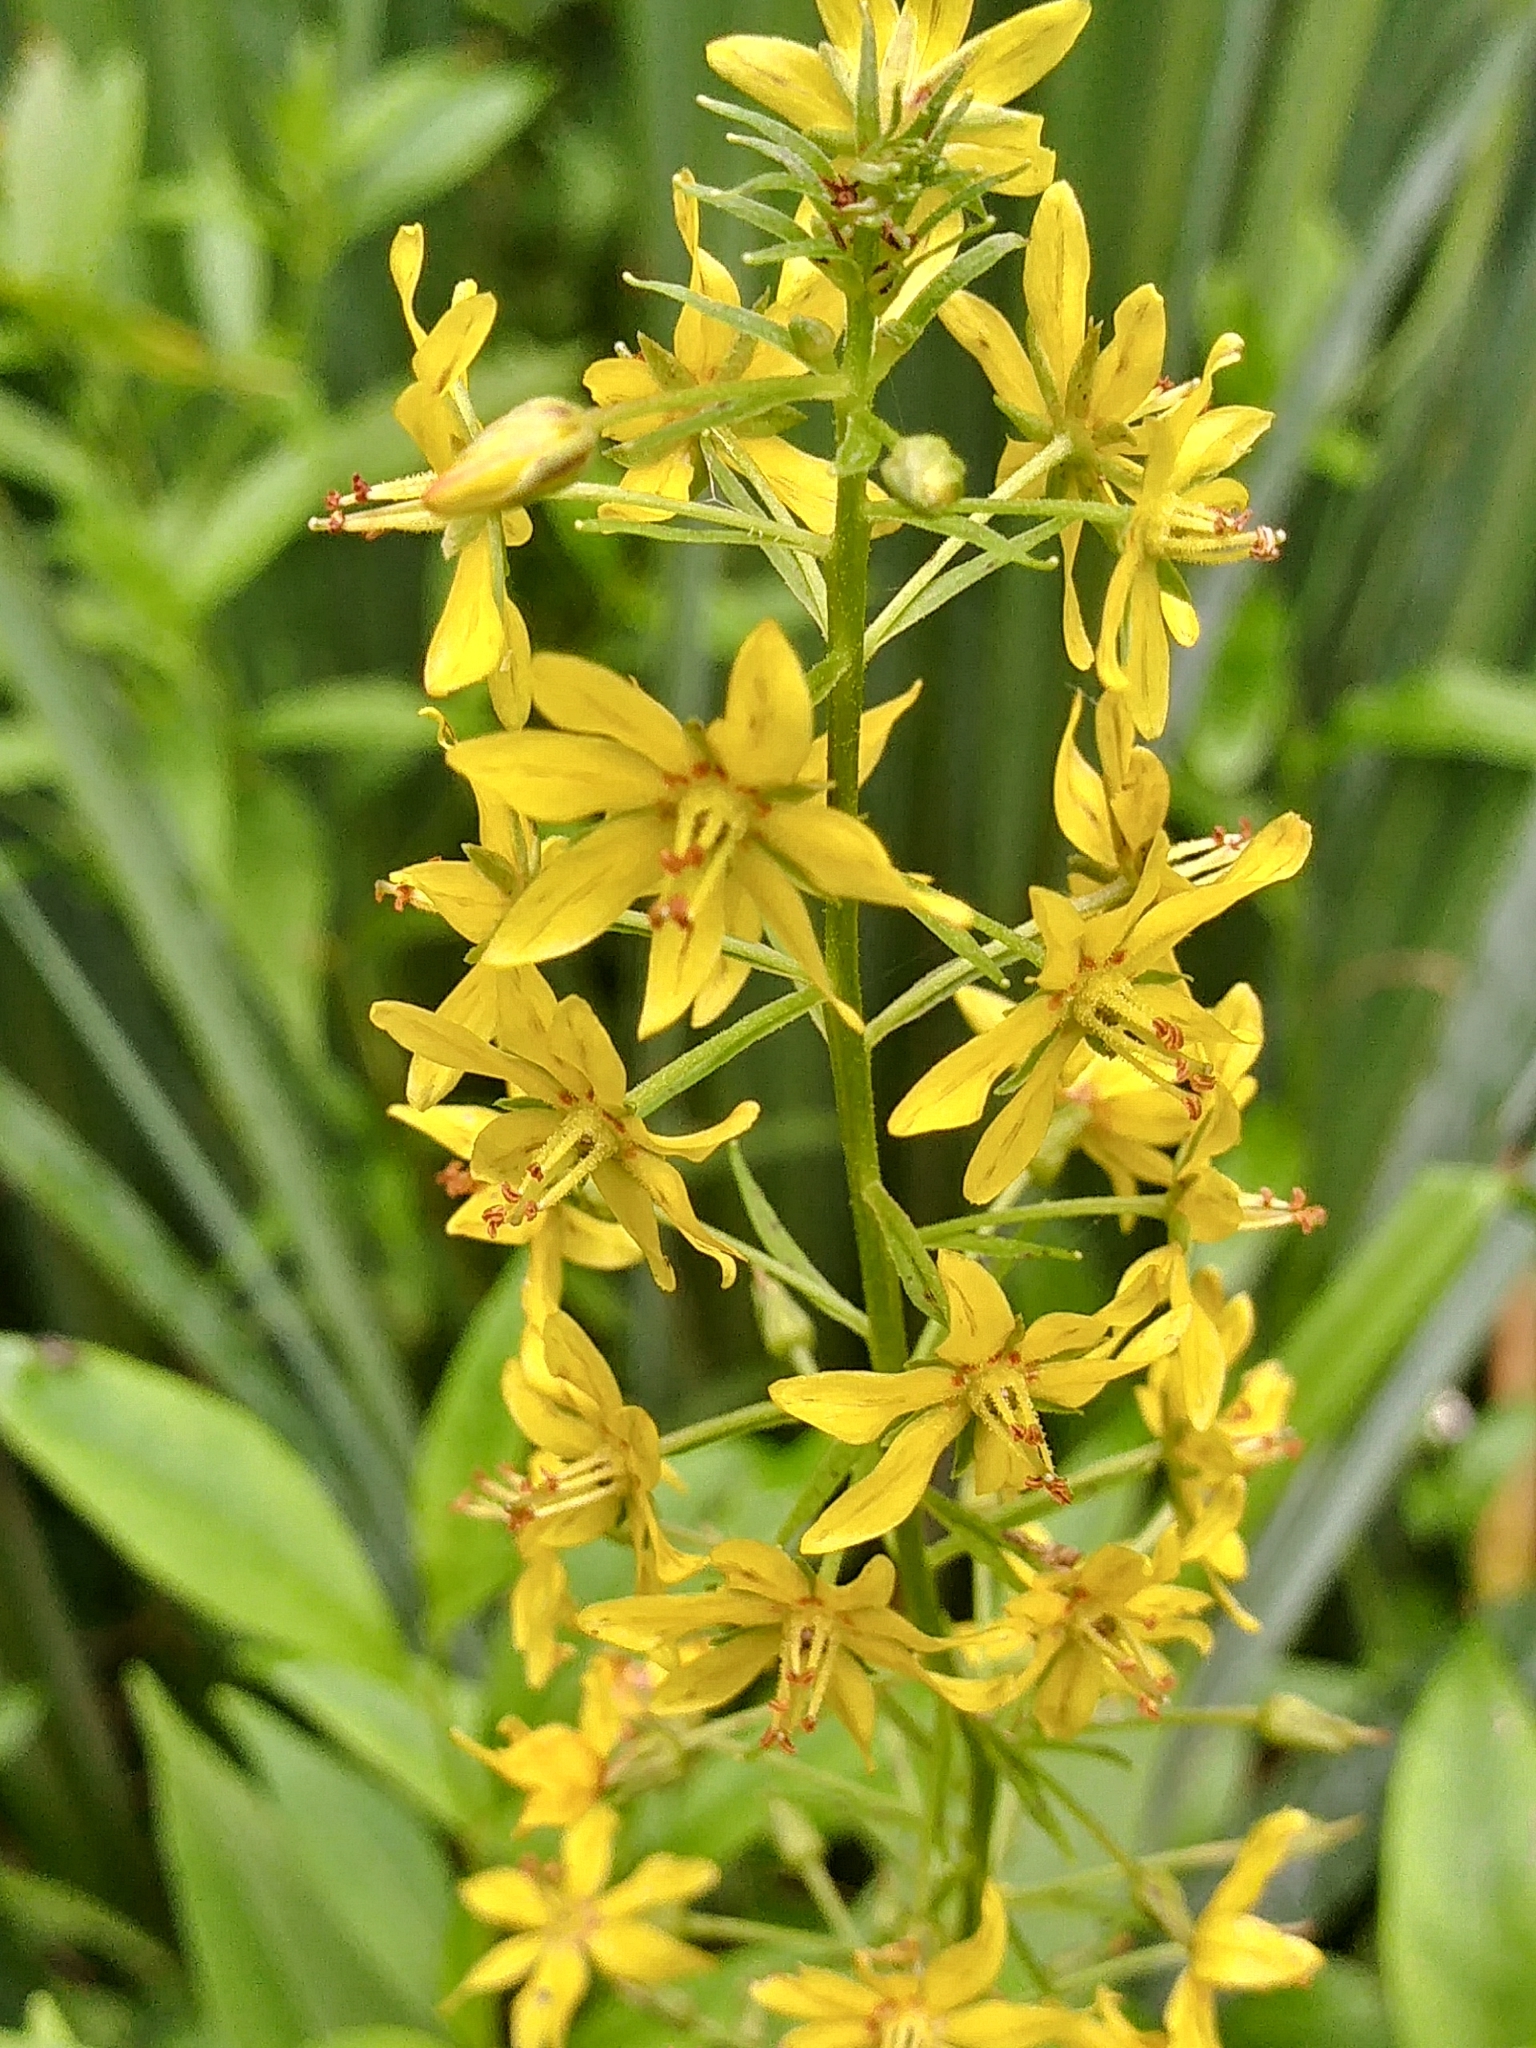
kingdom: Plantae
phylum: Tracheophyta
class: Magnoliopsida
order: Ericales
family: Primulaceae
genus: Lysimachia
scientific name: Lysimachia terrestris
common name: Lake loosestrife
